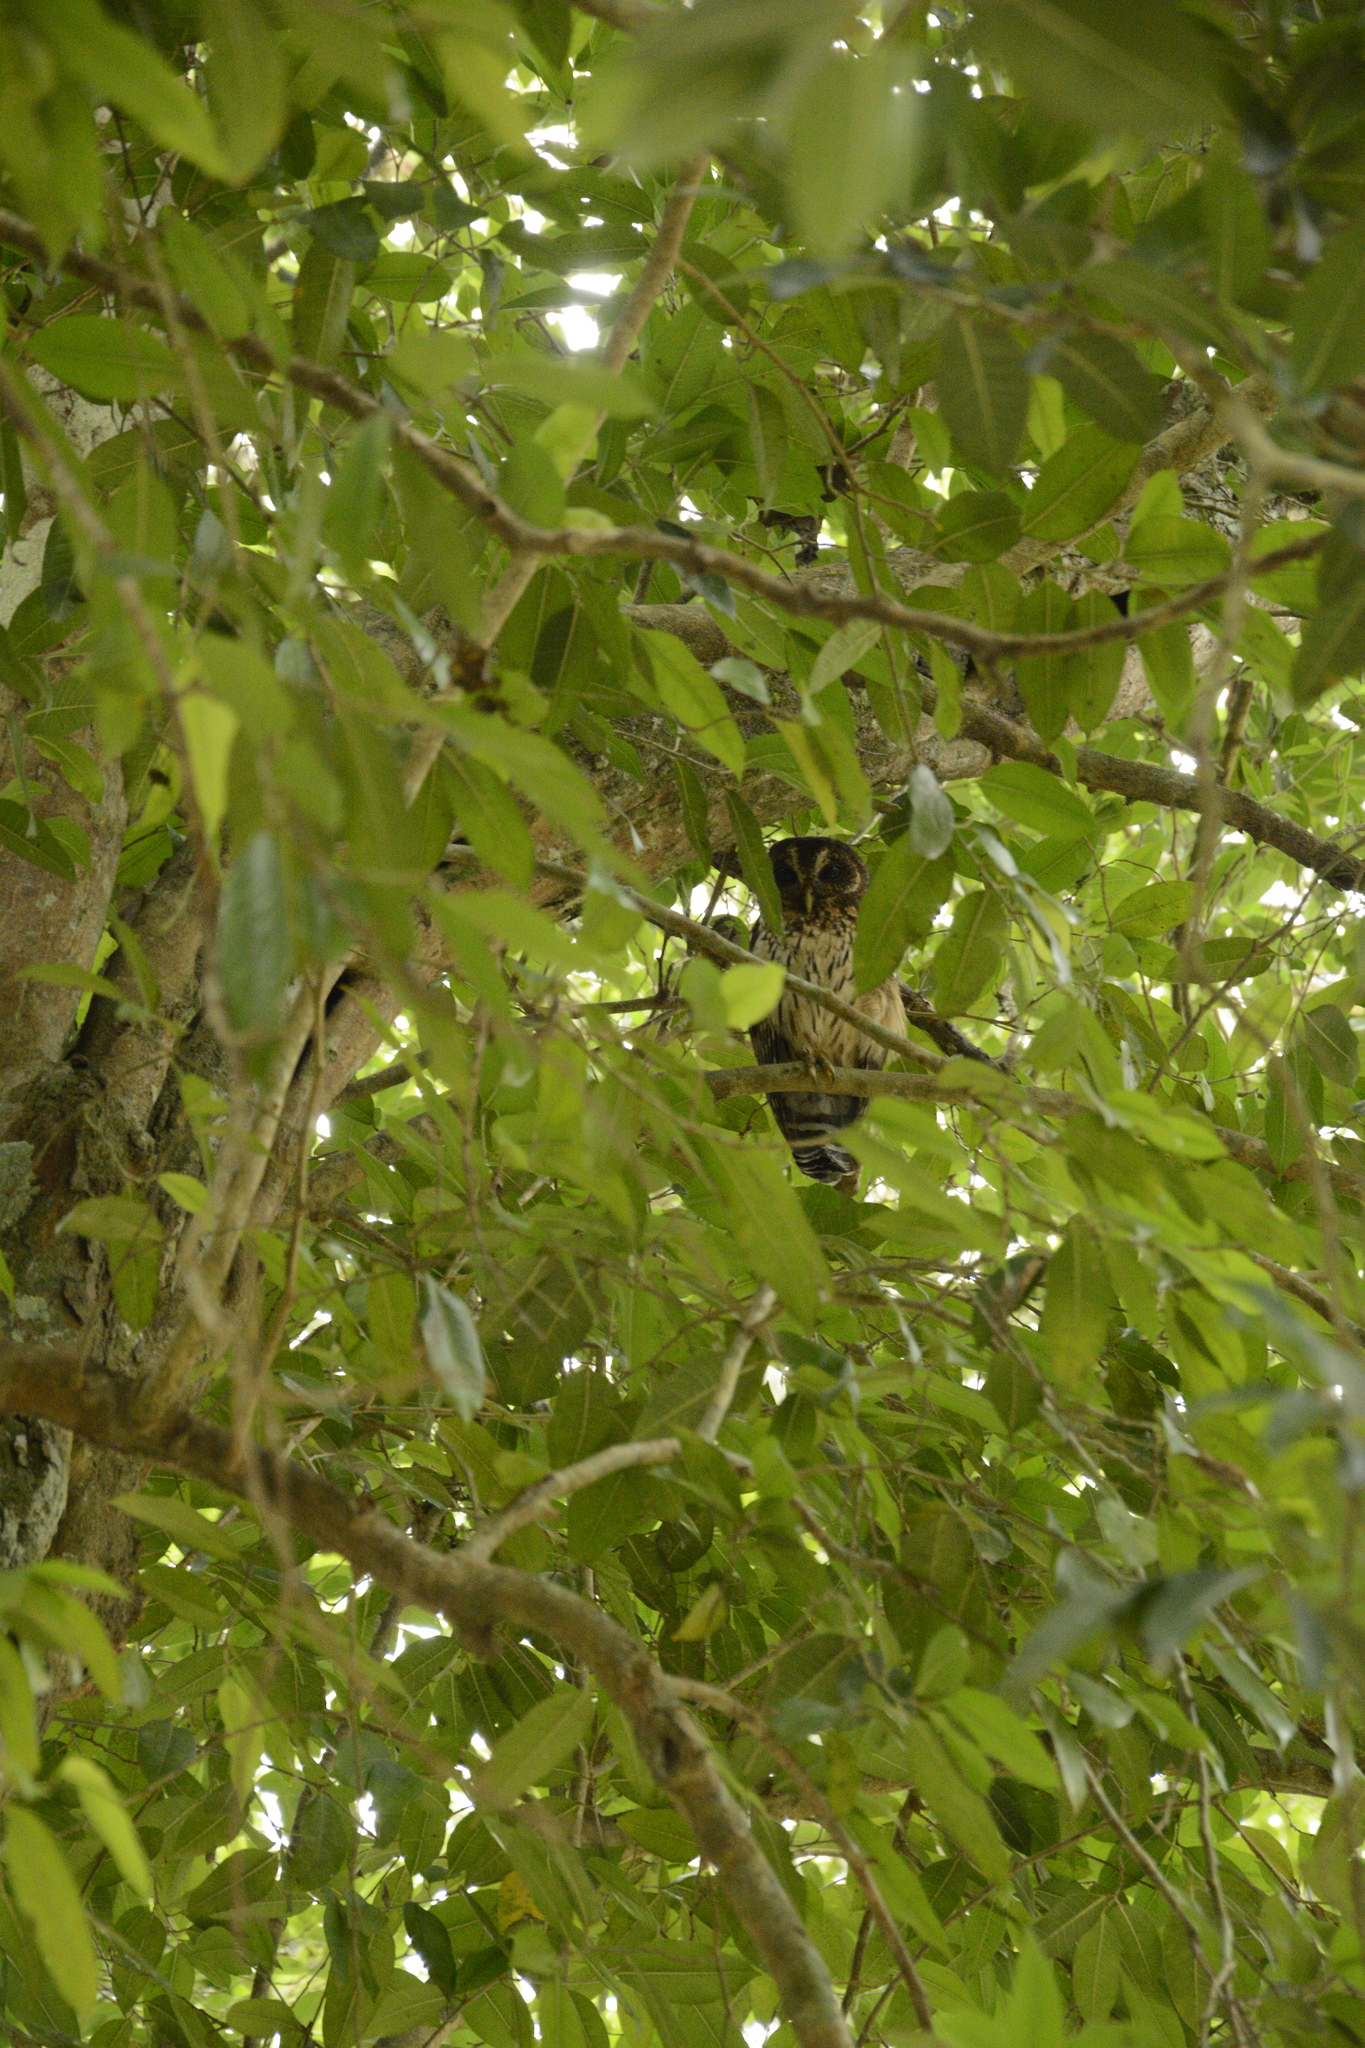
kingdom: Animalia
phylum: Chordata
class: Aves
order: Strigiformes
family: Strigidae
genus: Strix
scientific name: Strix virgata
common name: Mottled owl
